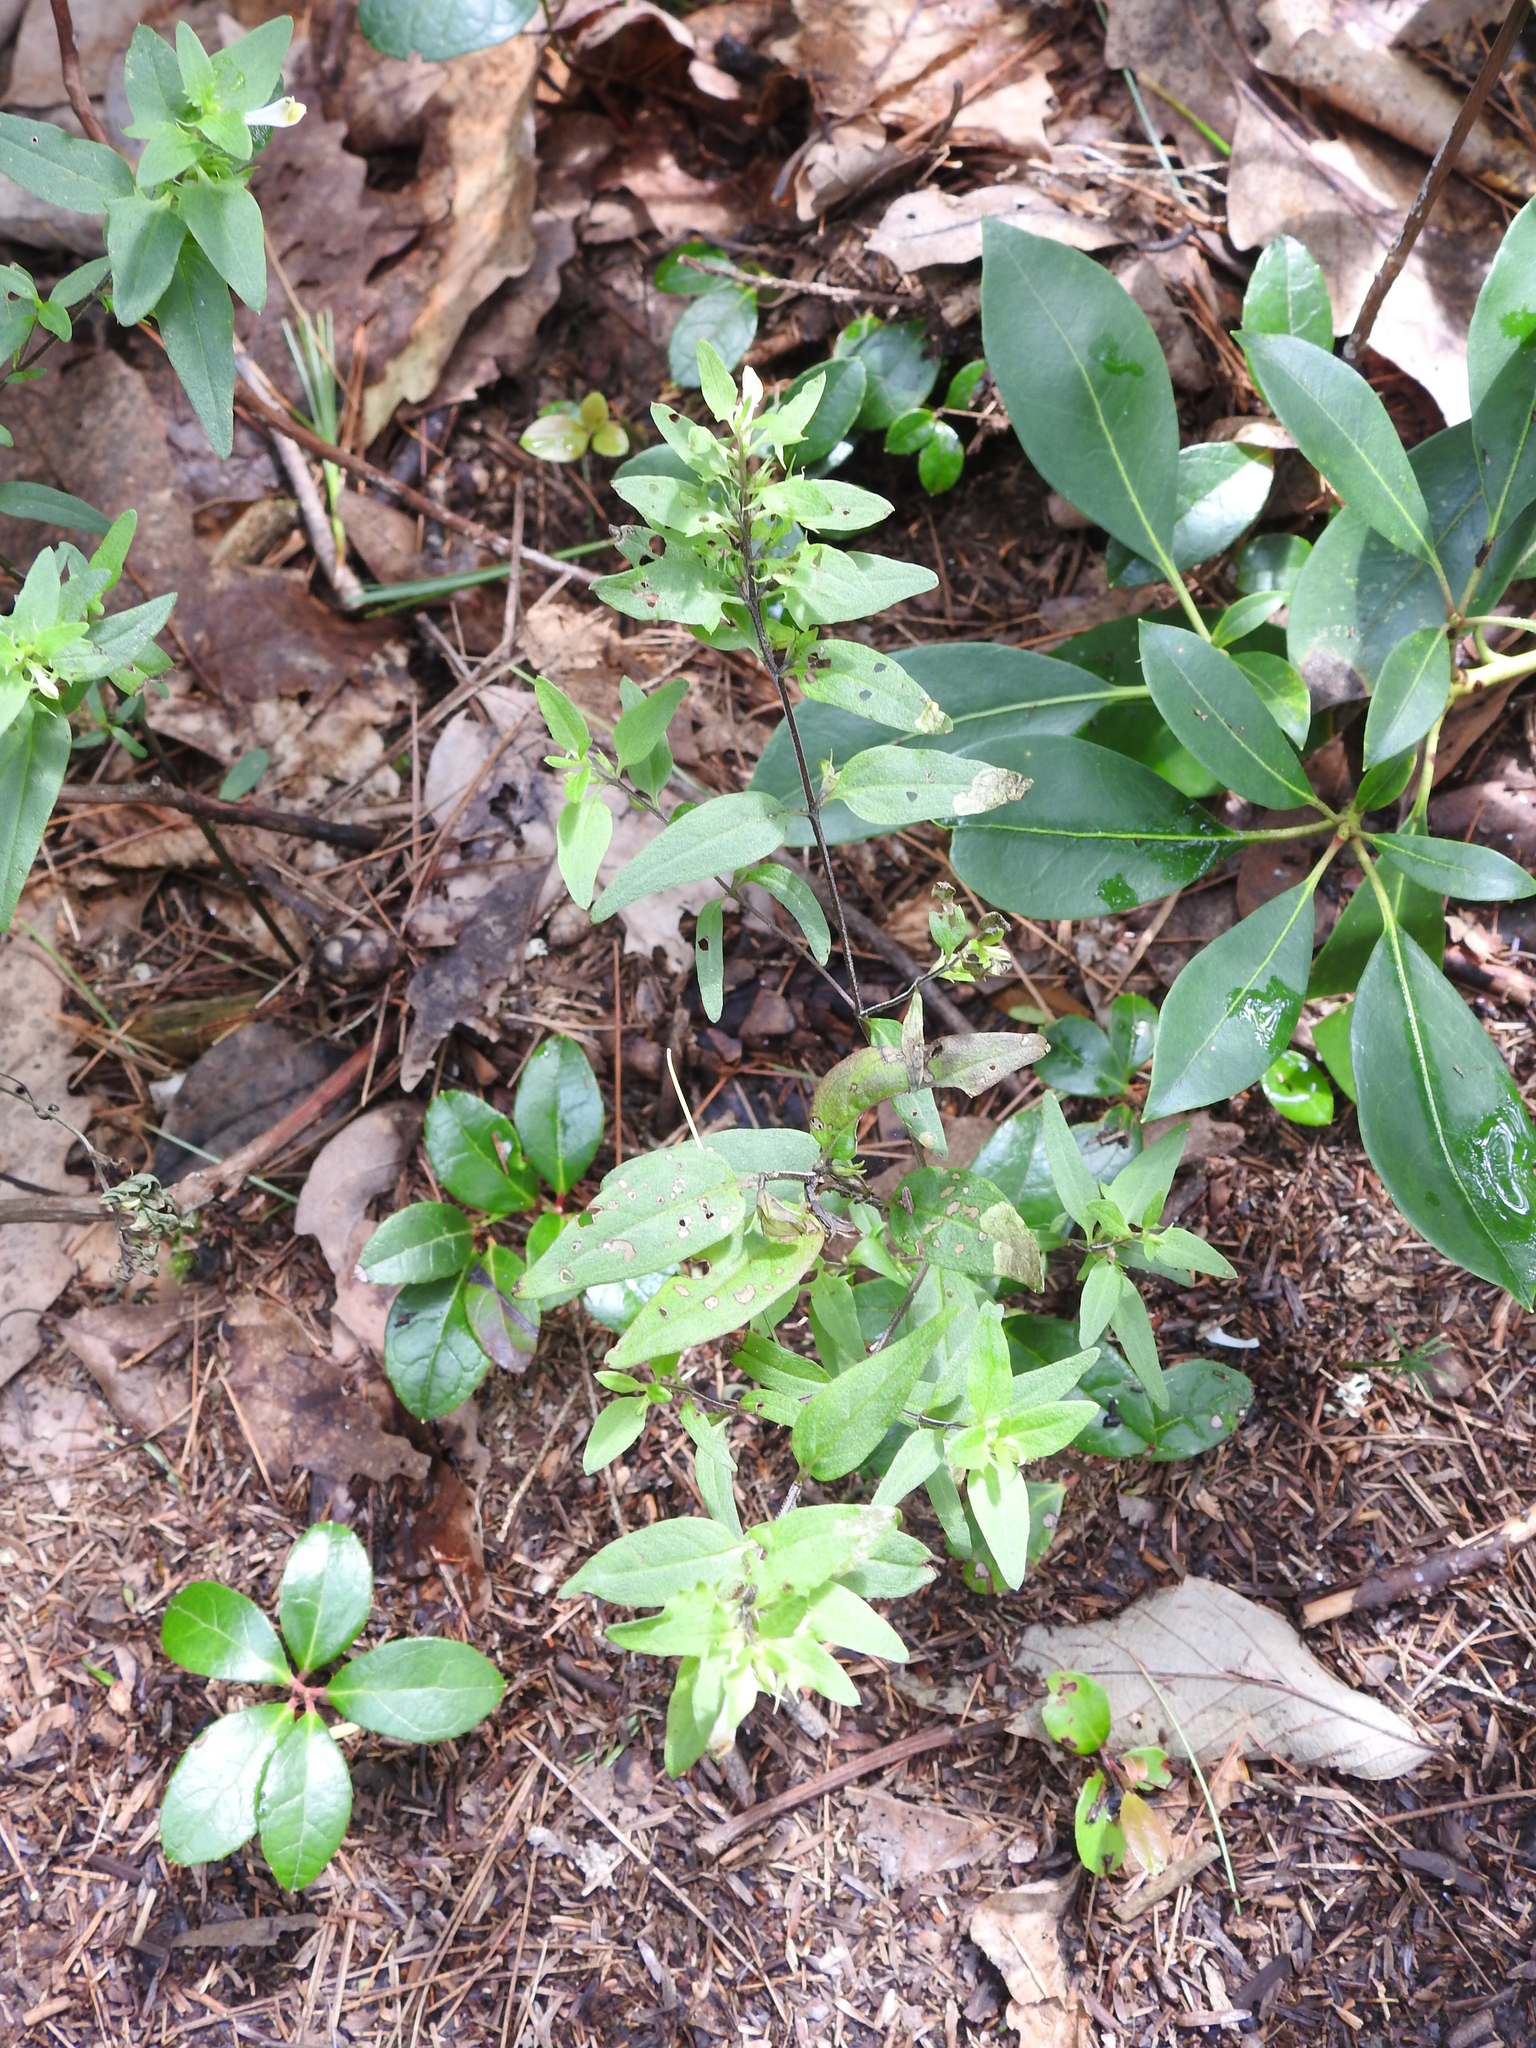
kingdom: Plantae
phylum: Tracheophyta
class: Magnoliopsida
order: Lamiales
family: Orobanchaceae
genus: Melampyrum
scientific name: Melampyrum lineare
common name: American cow-wheat
